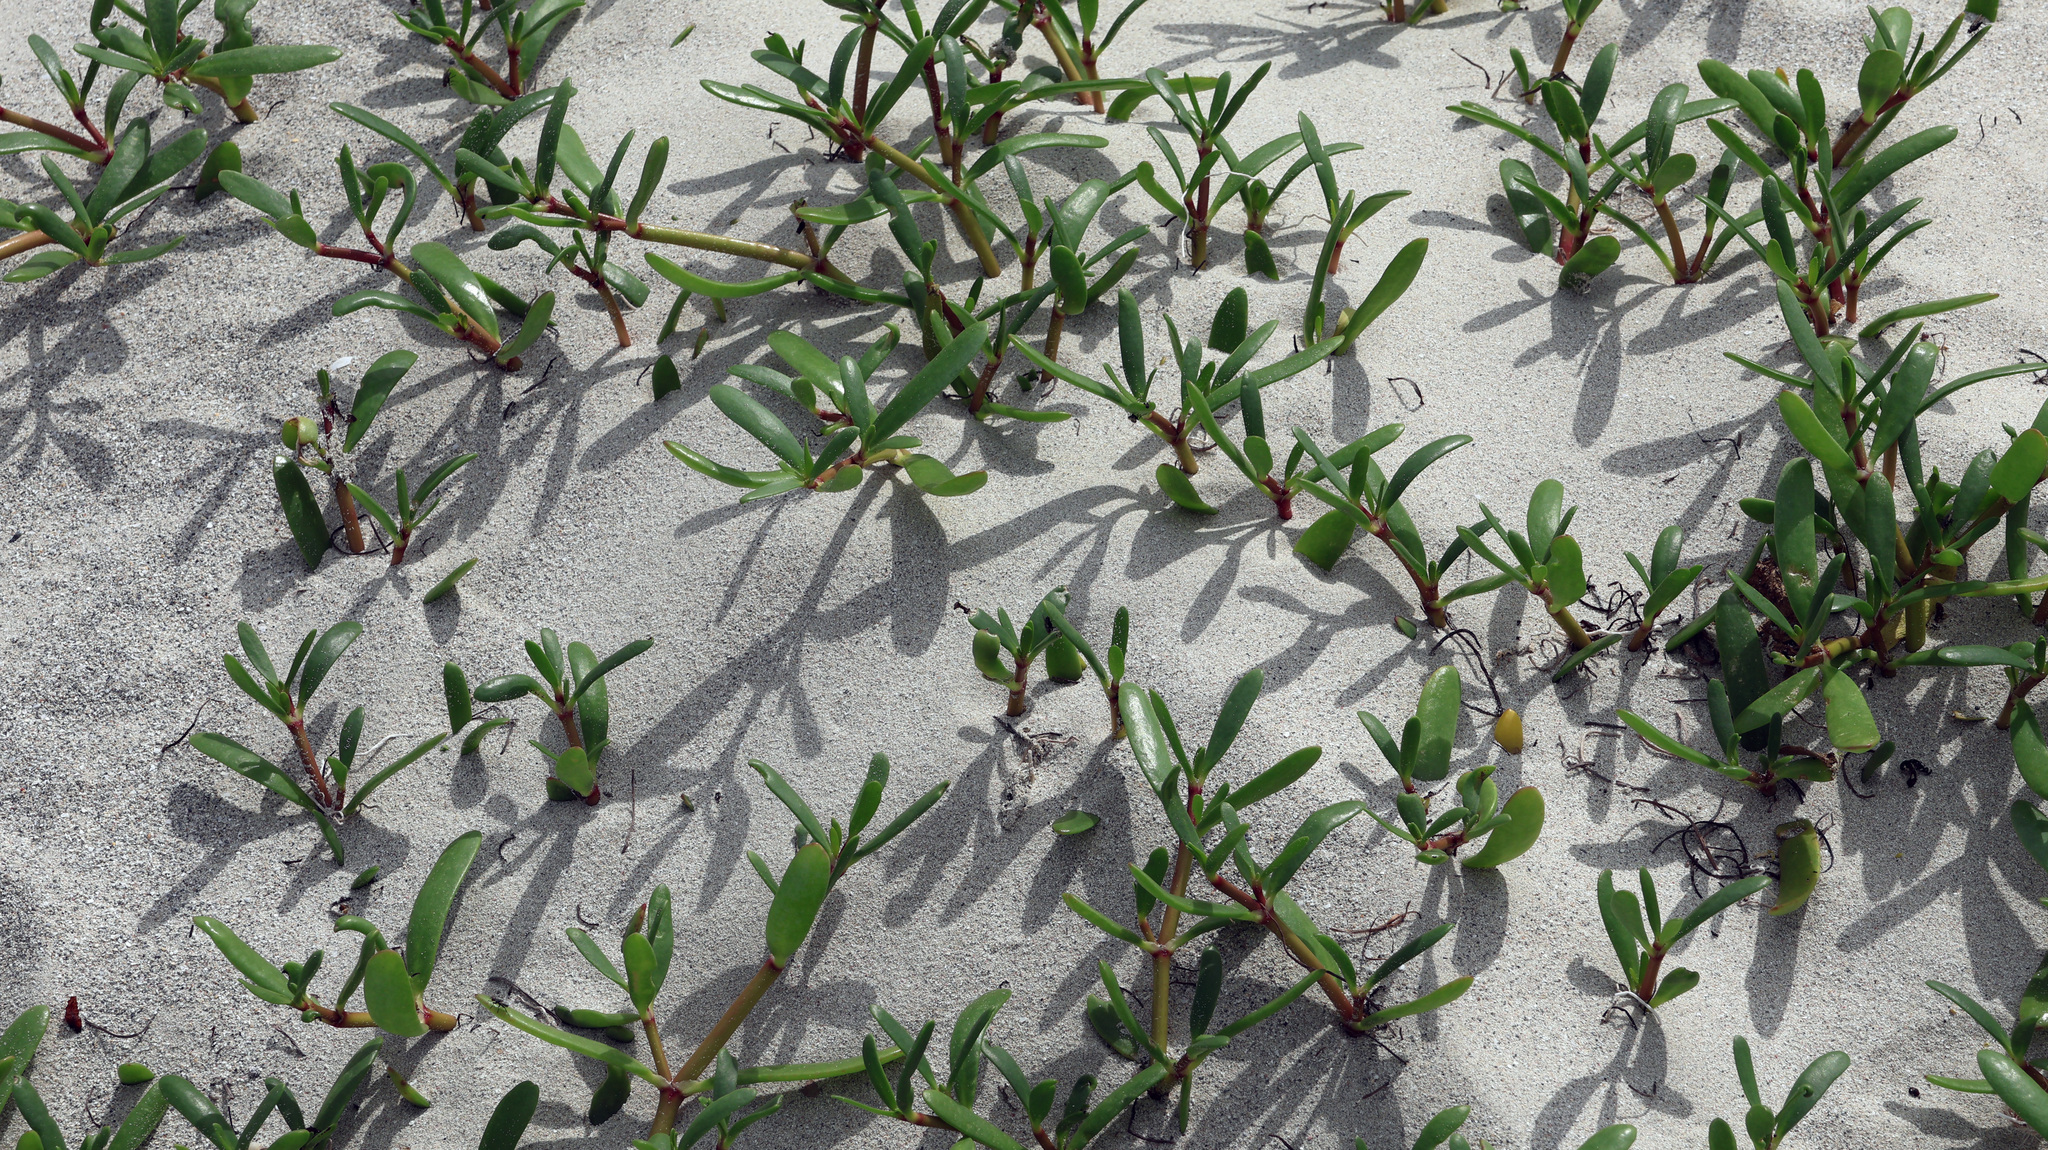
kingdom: Plantae
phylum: Tracheophyta
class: Magnoliopsida
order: Caryophyllales
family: Aizoaceae
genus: Sesuvium
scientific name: Sesuvium portulacastrum
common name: Sea-purslane
